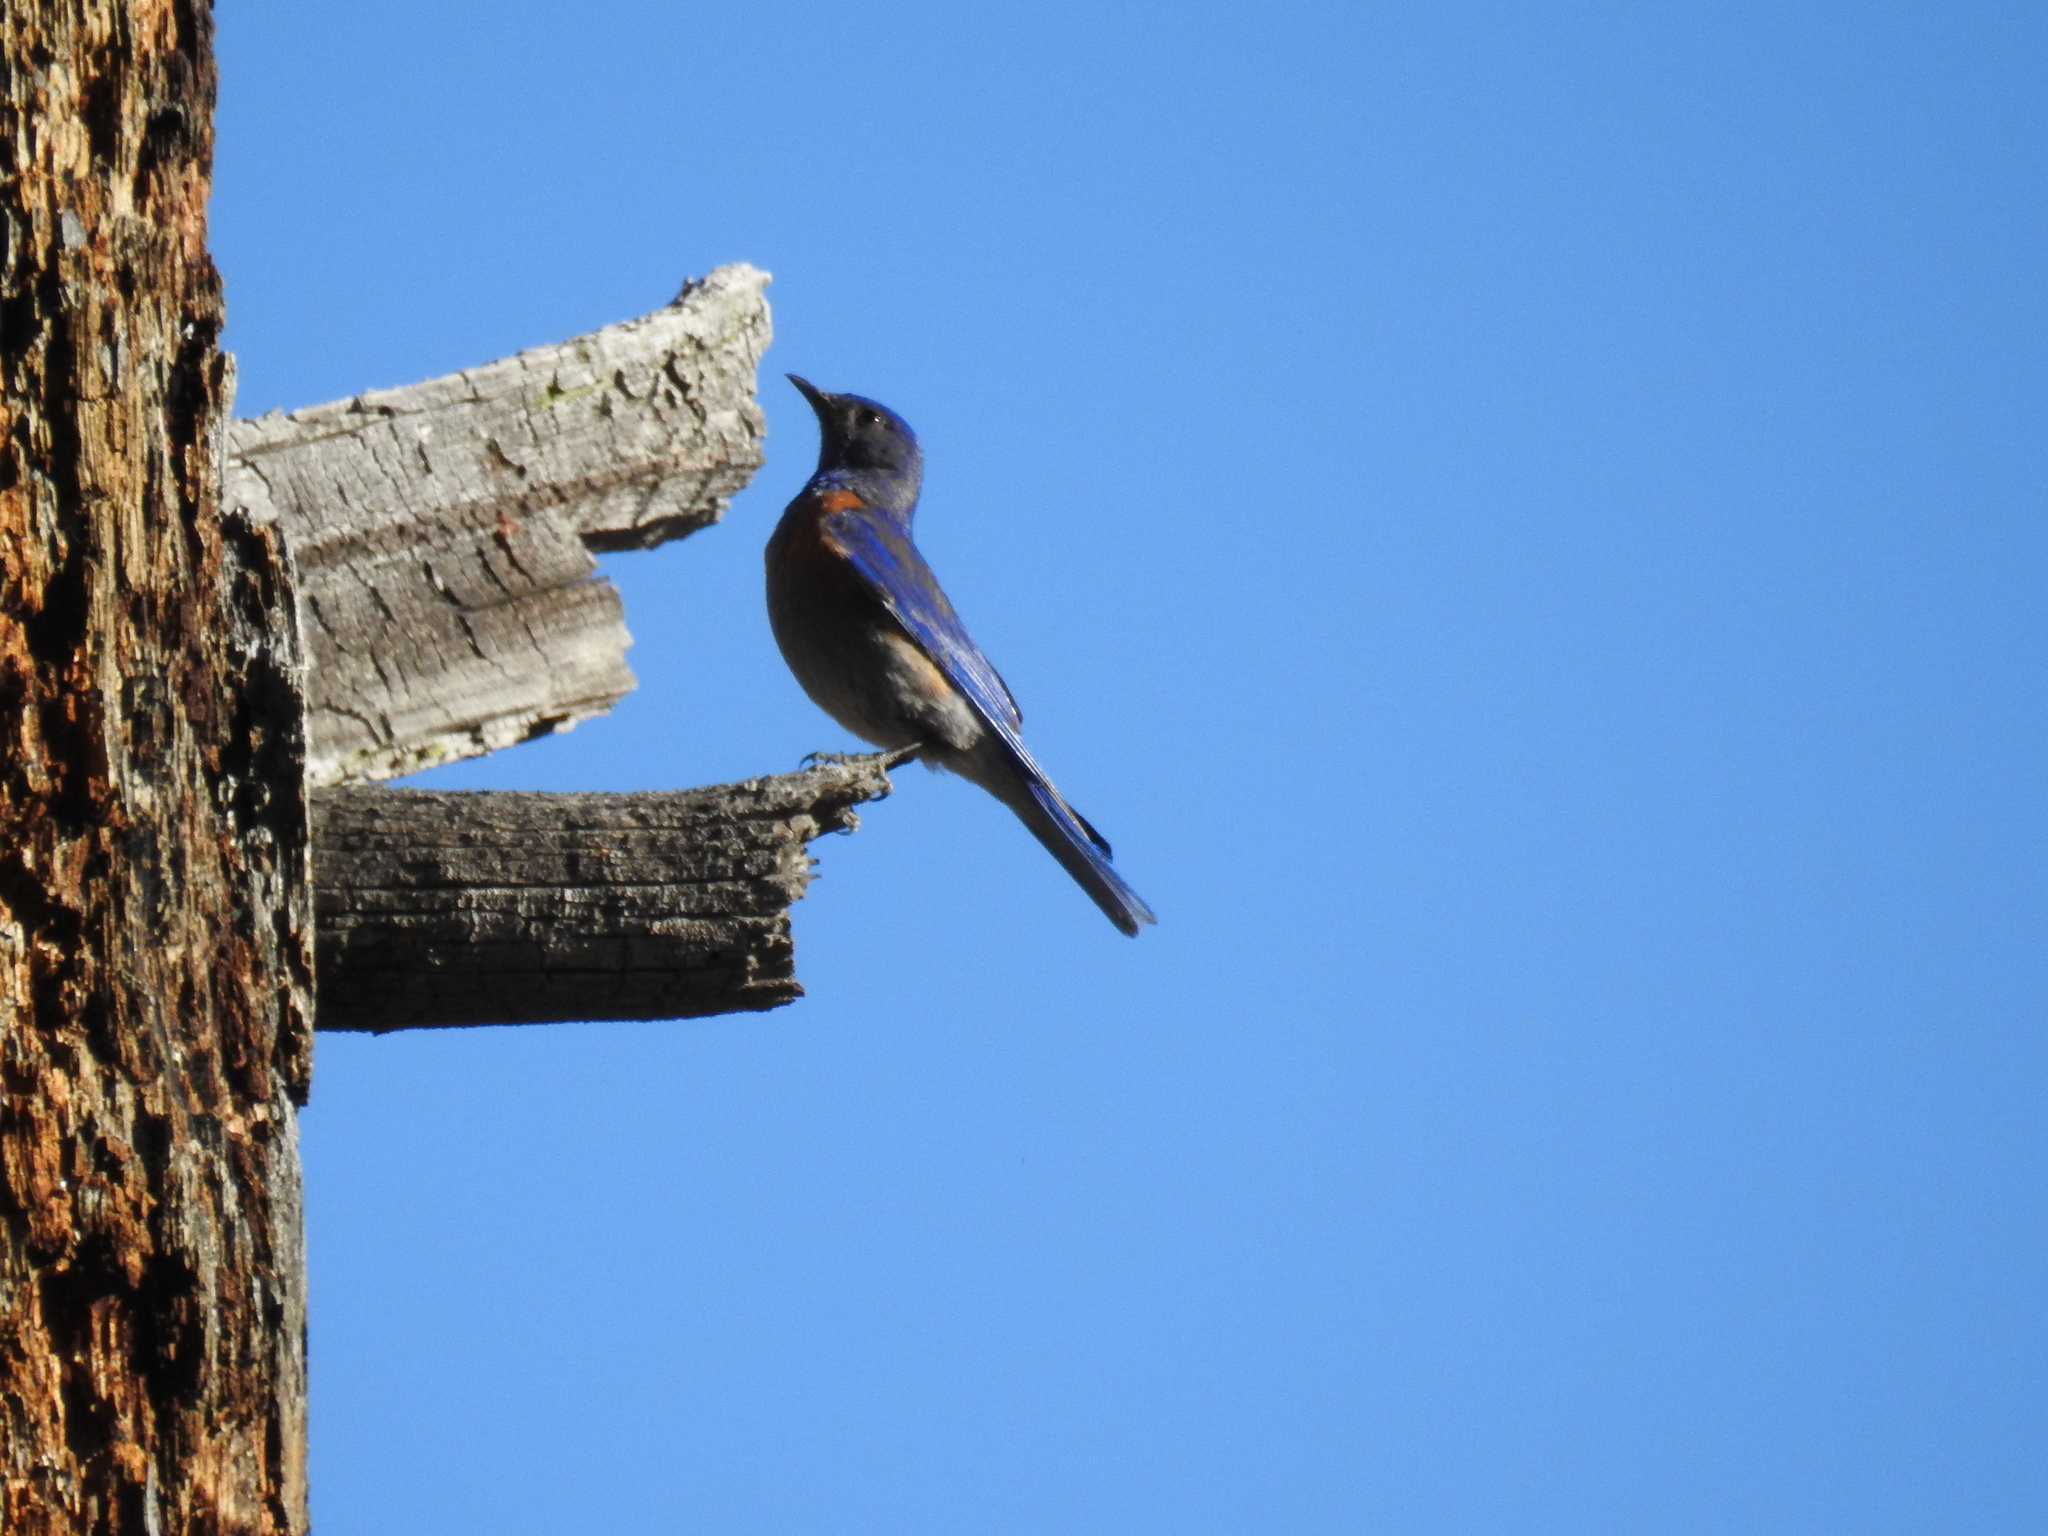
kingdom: Animalia
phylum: Chordata
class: Aves
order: Passeriformes
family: Turdidae
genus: Sialia
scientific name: Sialia mexicana
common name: Western bluebird
